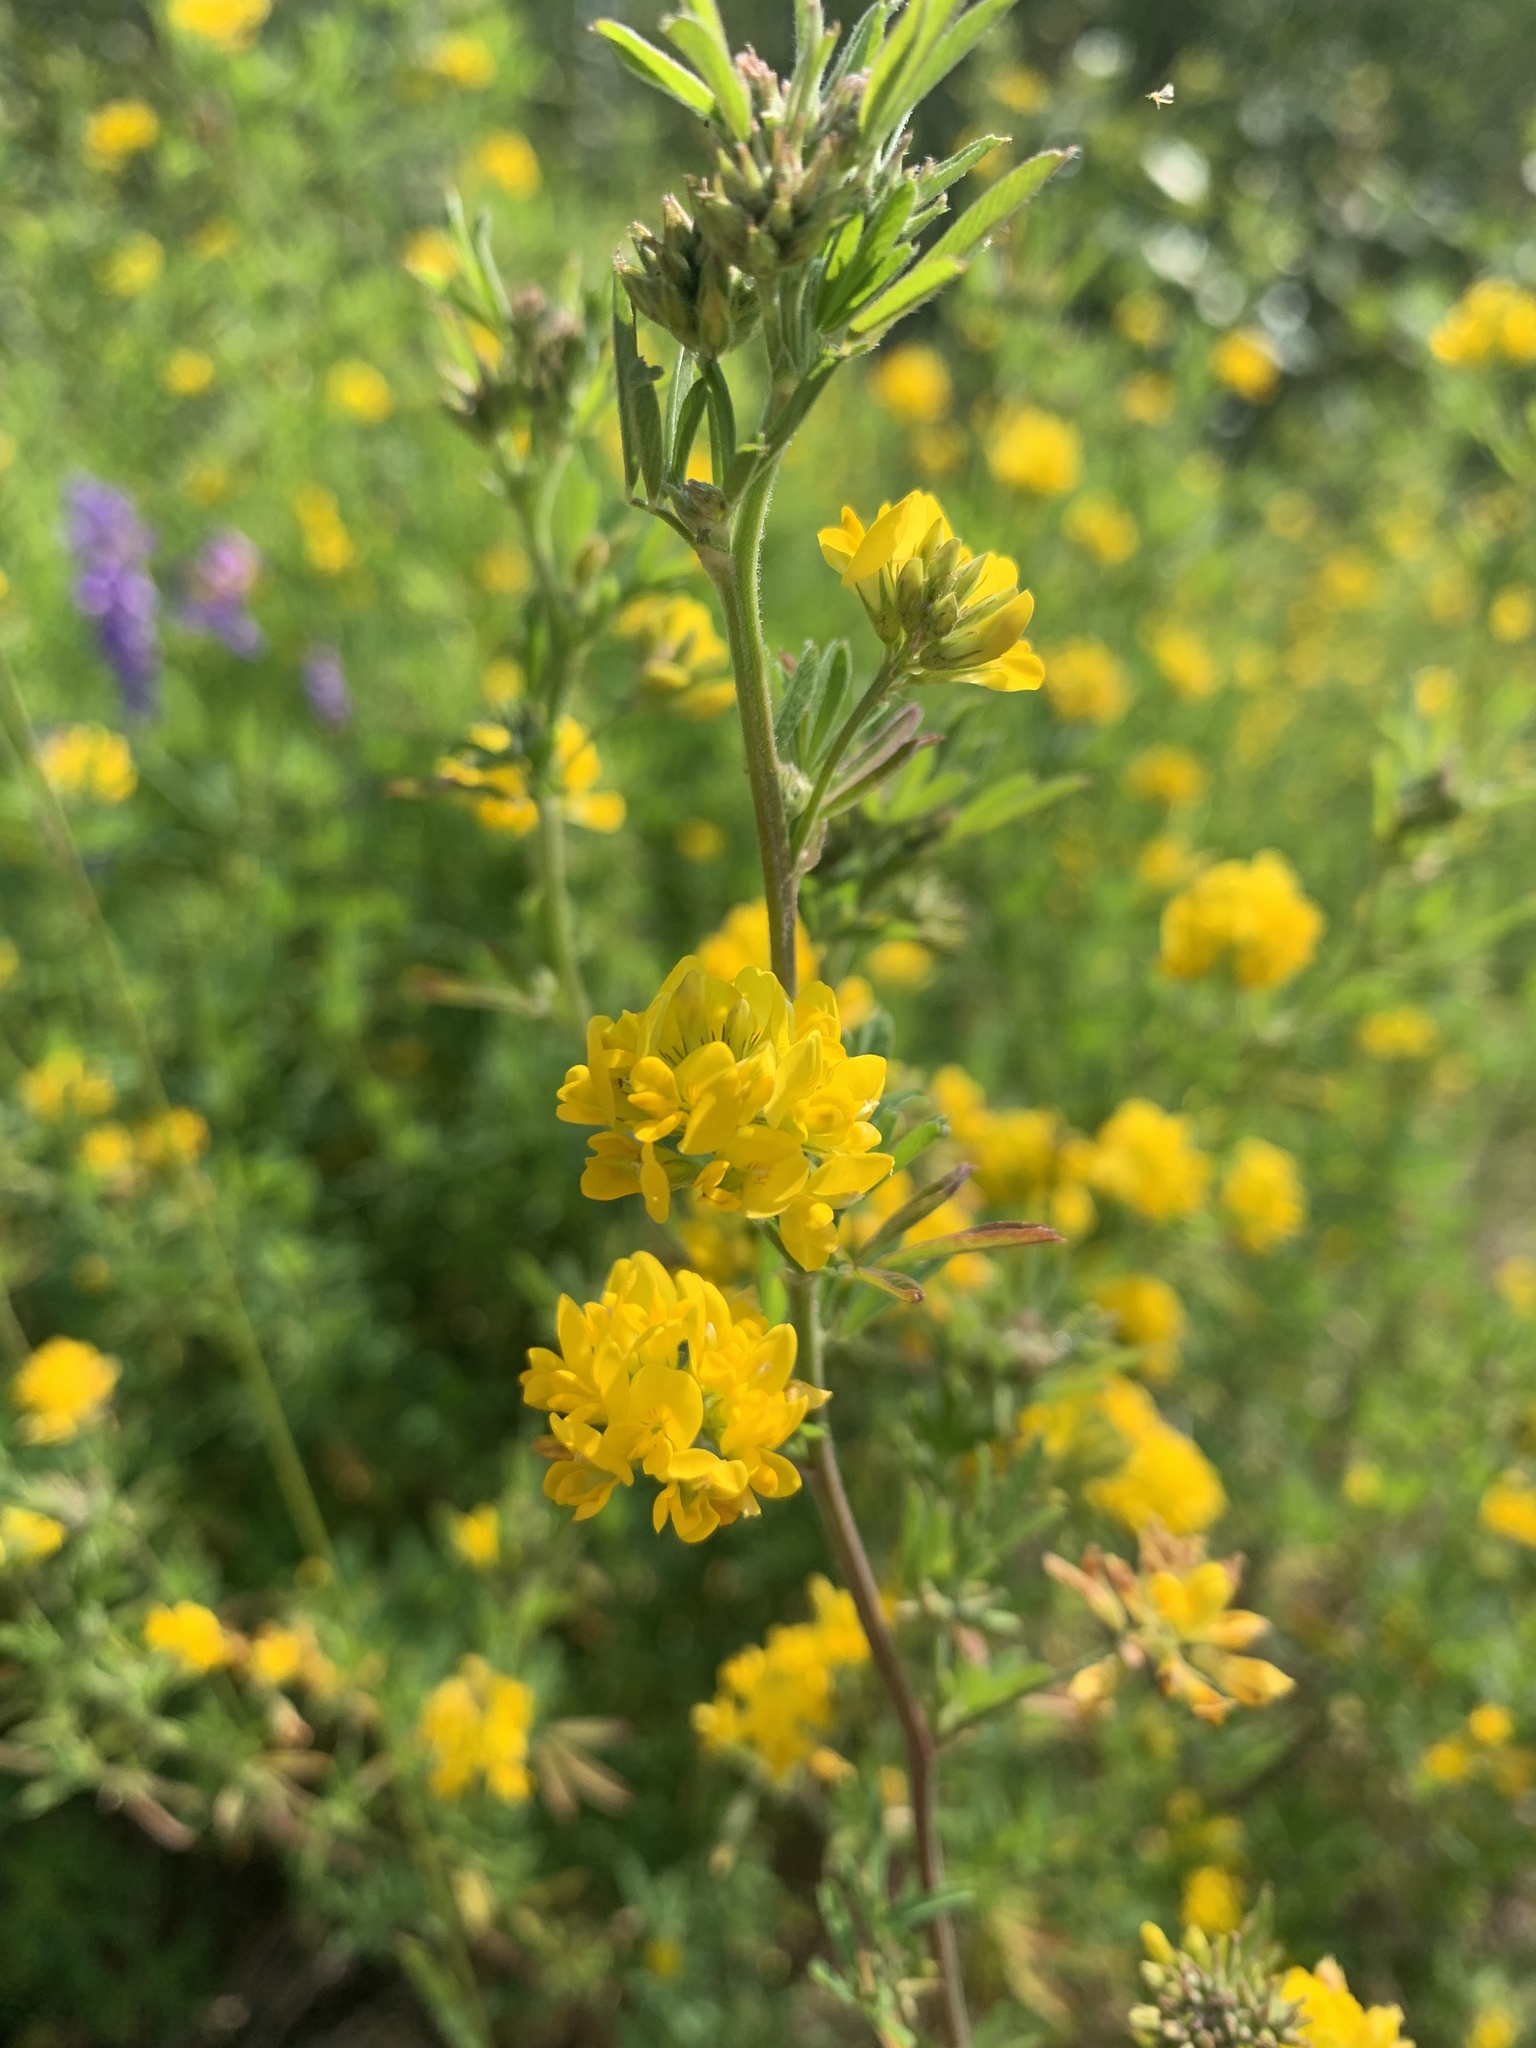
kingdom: Plantae
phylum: Tracheophyta
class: Magnoliopsida
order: Fabales
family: Fabaceae
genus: Medicago
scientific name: Medicago falcata
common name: Sickle medick
